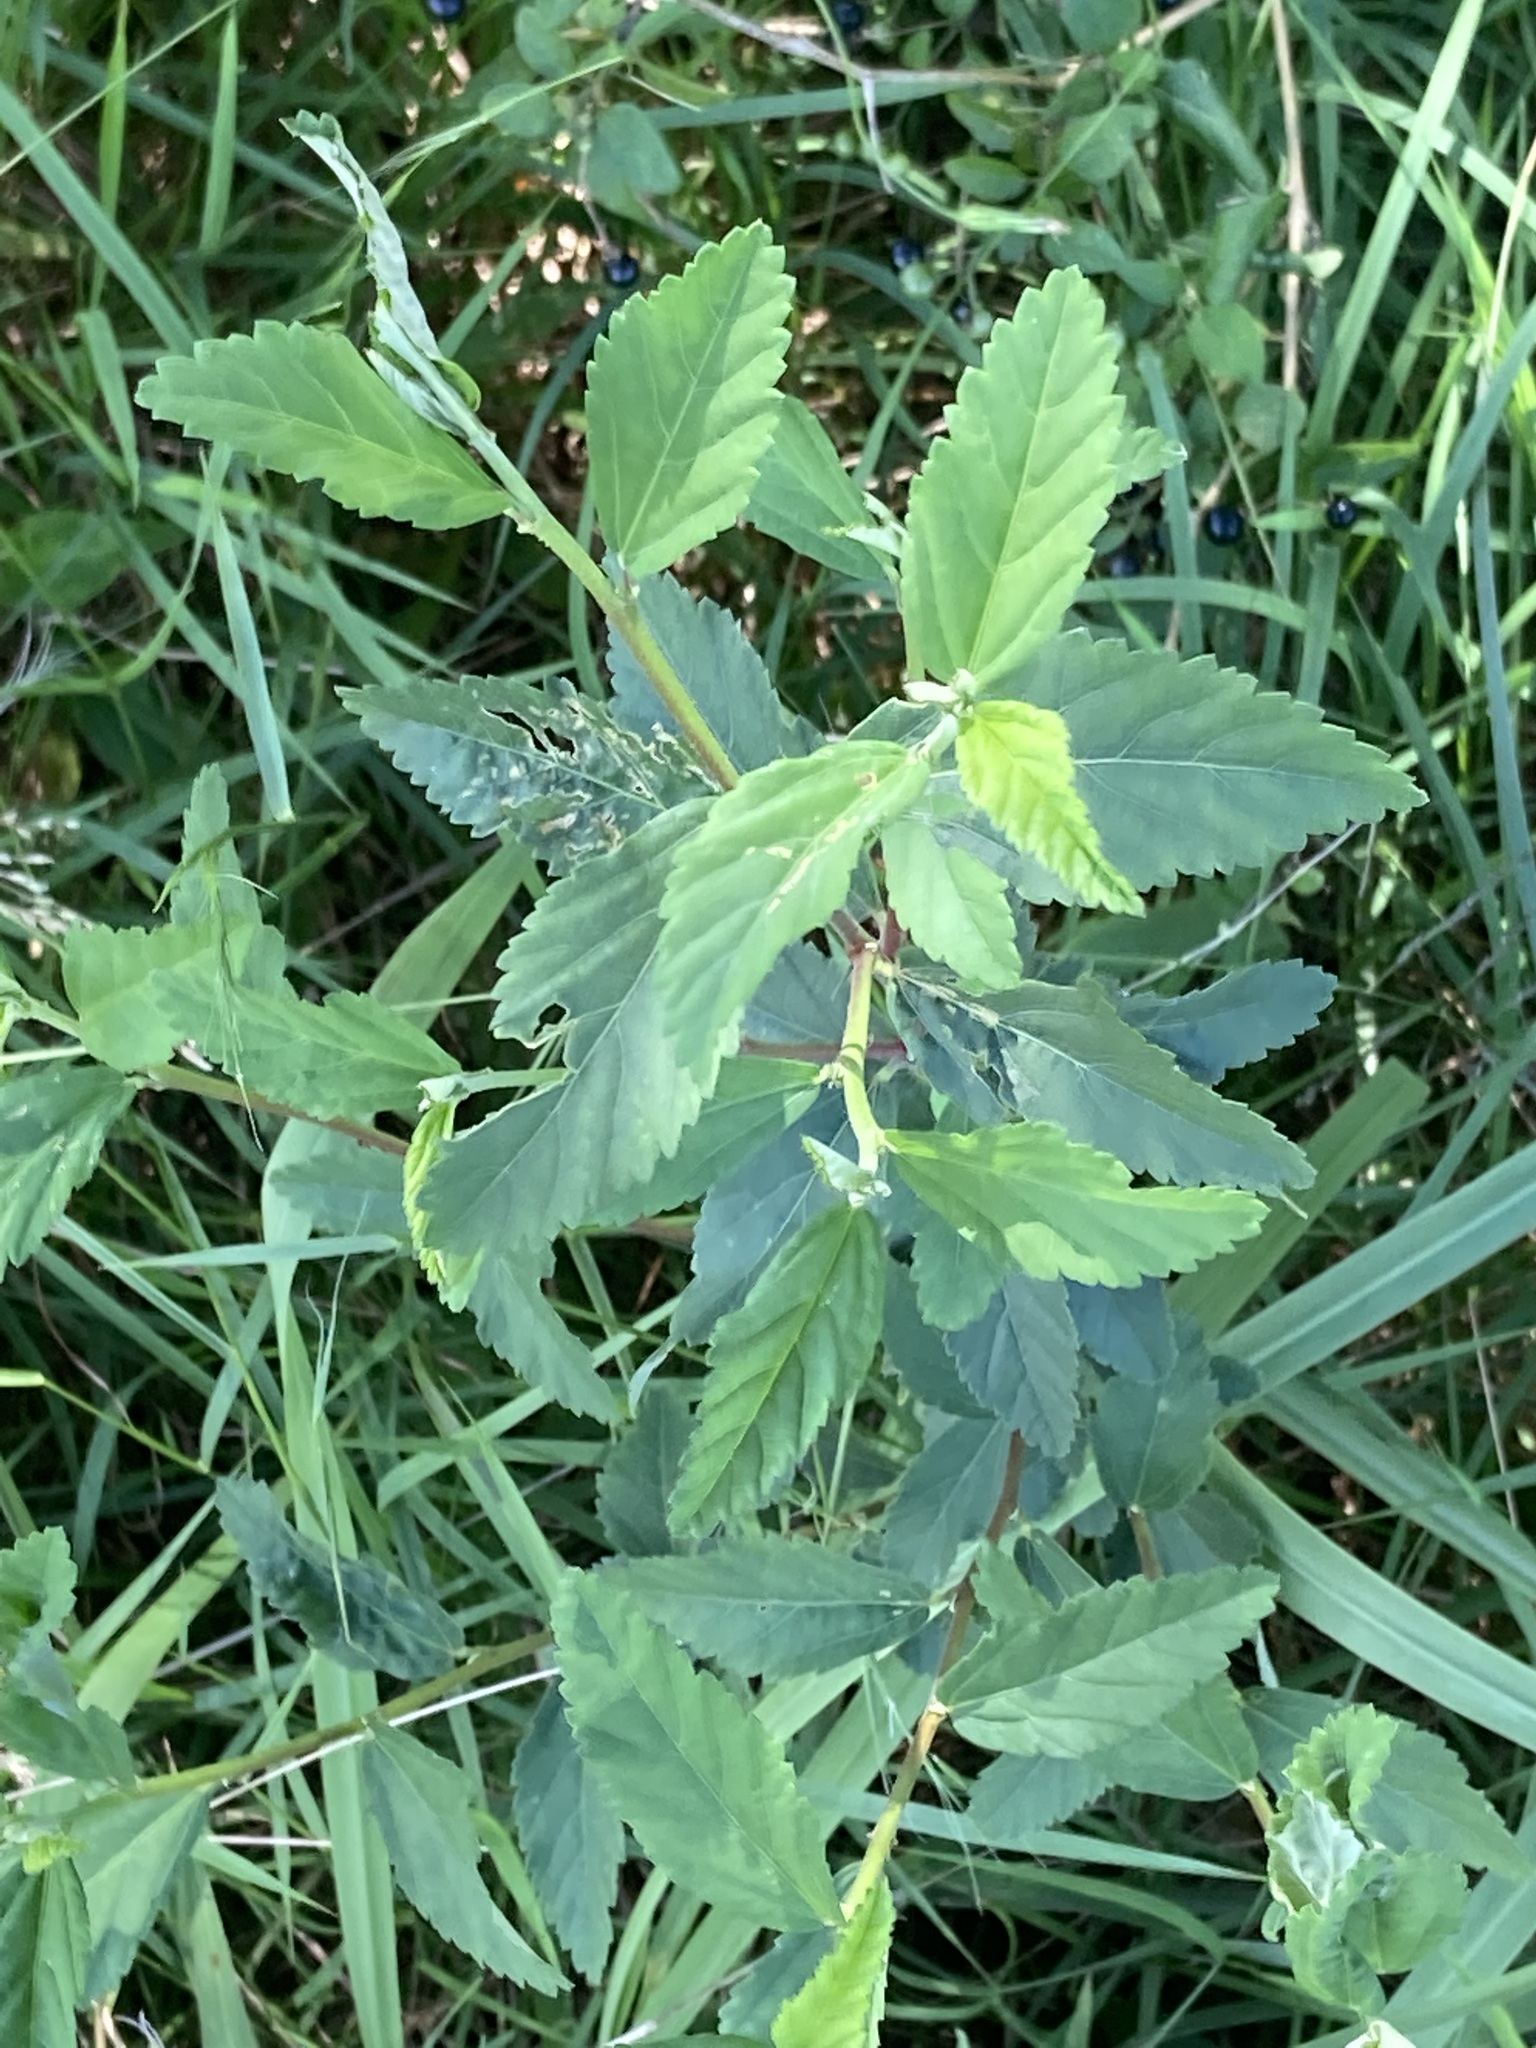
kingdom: Plantae
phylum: Tracheophyta
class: Magnoliopsida
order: Malvales
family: Malvaceae
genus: Sida
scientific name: Sida rhombifolia
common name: Queensland-hemp
